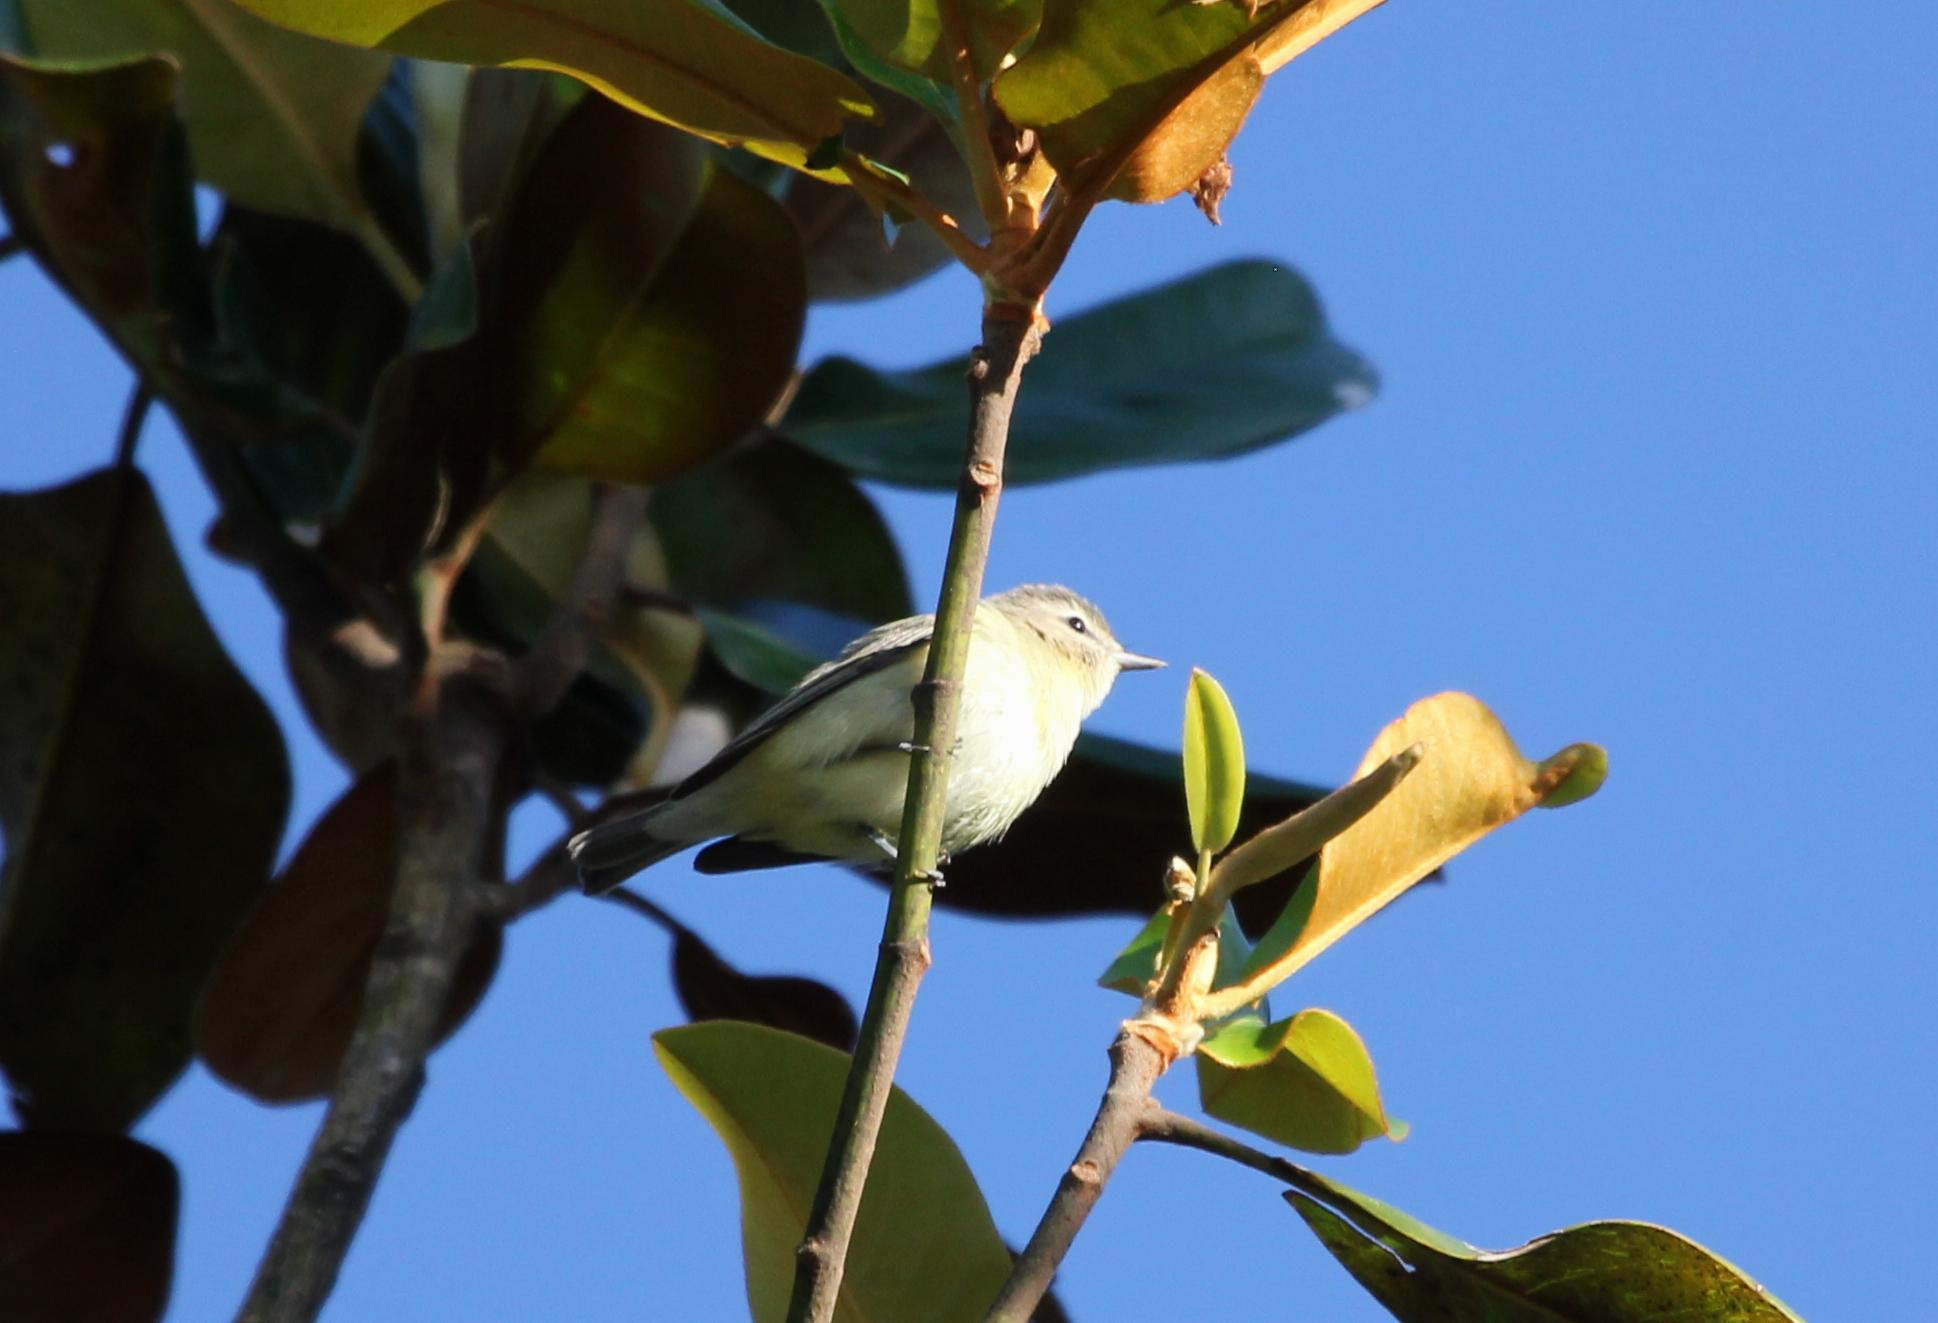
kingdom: Animalia
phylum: Chordata
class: Aves
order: Passeriformes
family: Vireonidae
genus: Vireo
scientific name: Vireo philadelphicus
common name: Philadelphia vireo
